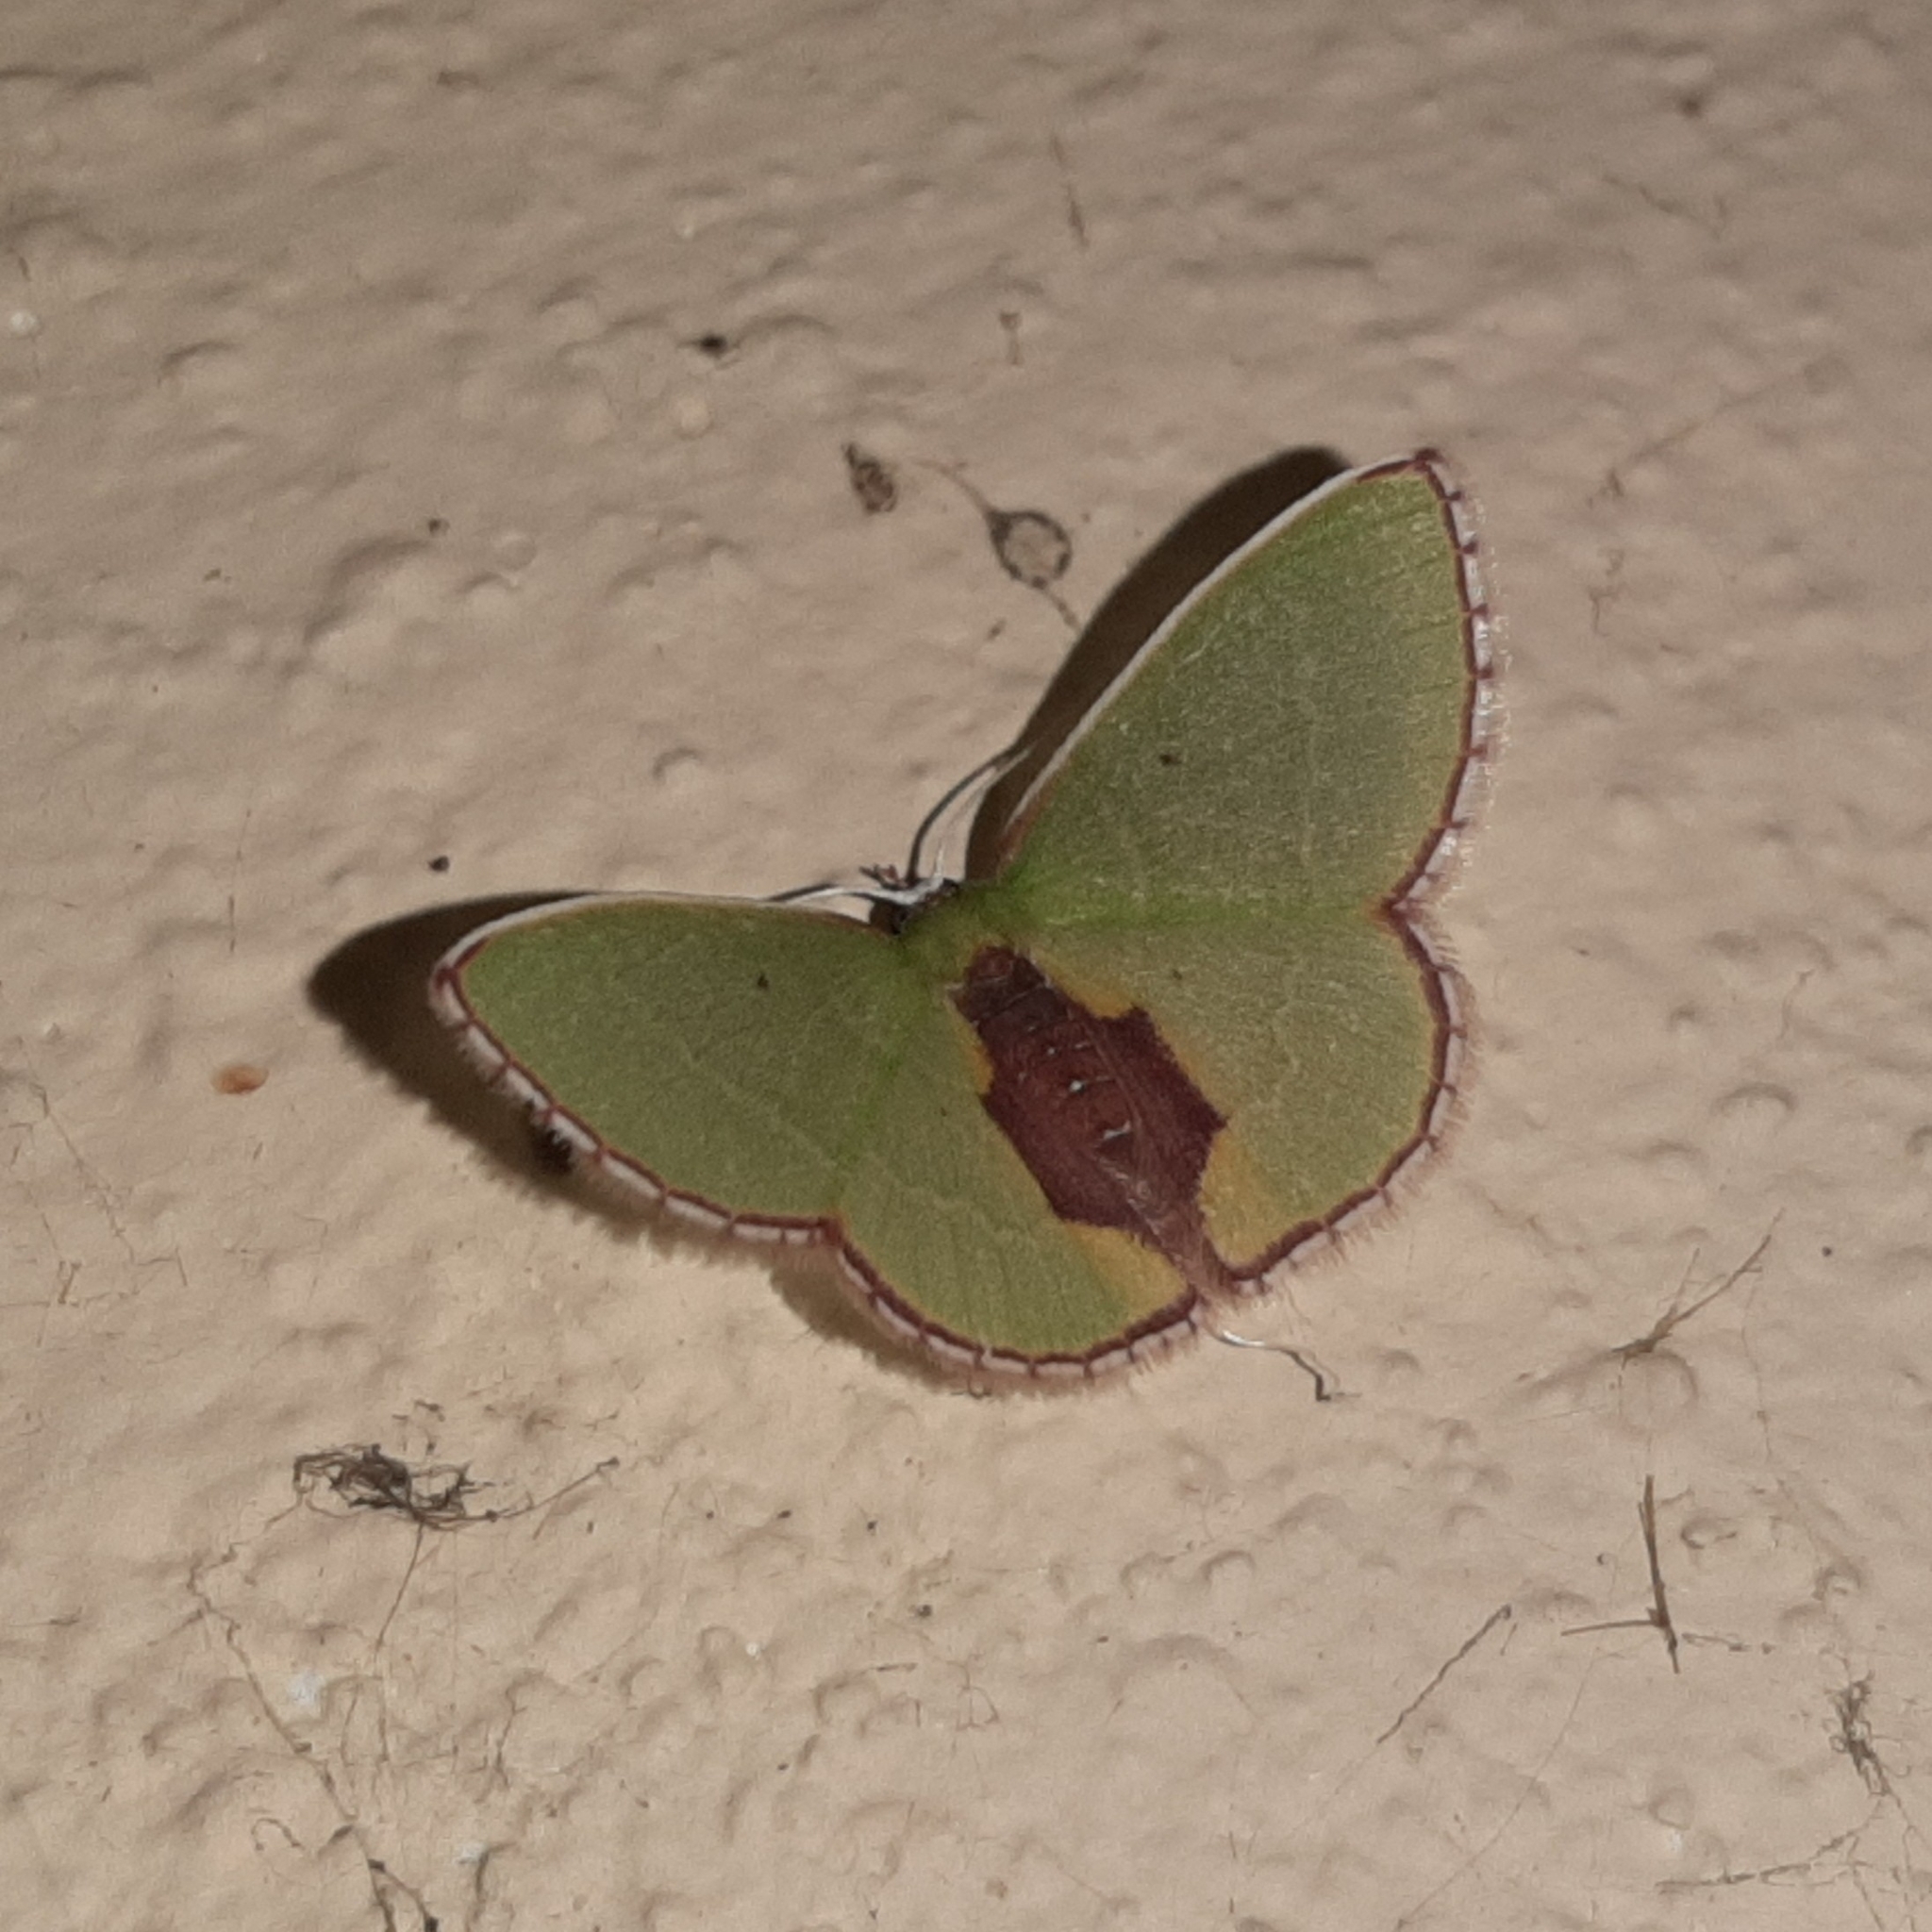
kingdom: Animalia
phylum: Arthropoda
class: Insecta
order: Lepidoptera
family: Geometridae
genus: Synchlora
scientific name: Synchlora astraeoides
